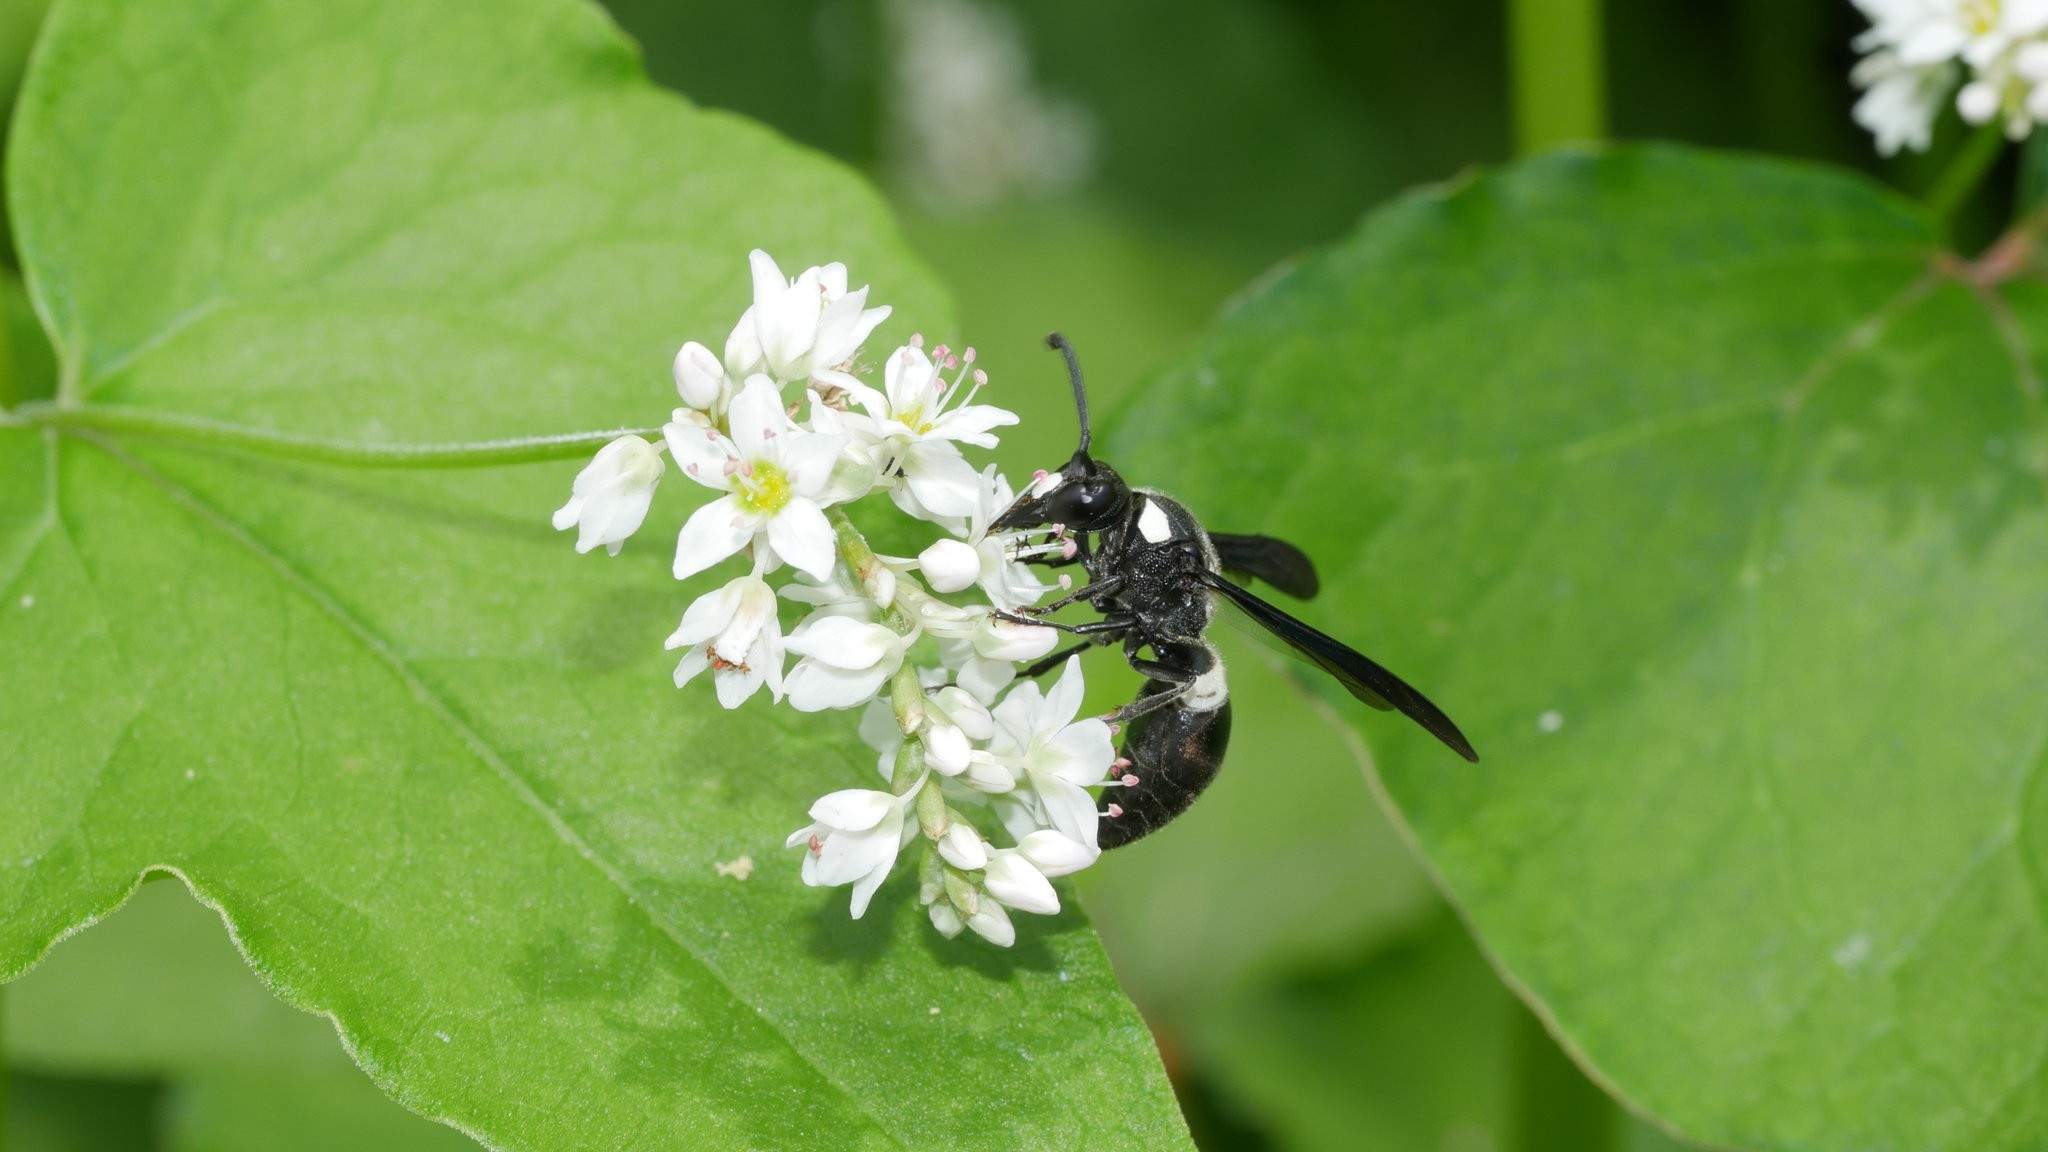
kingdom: Animalia
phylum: Arthropoda
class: Insecta
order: Hymenoptera
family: Eumenidae
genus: Monobia
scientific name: Monobia quadridens
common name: Four-toothed mason wasp
